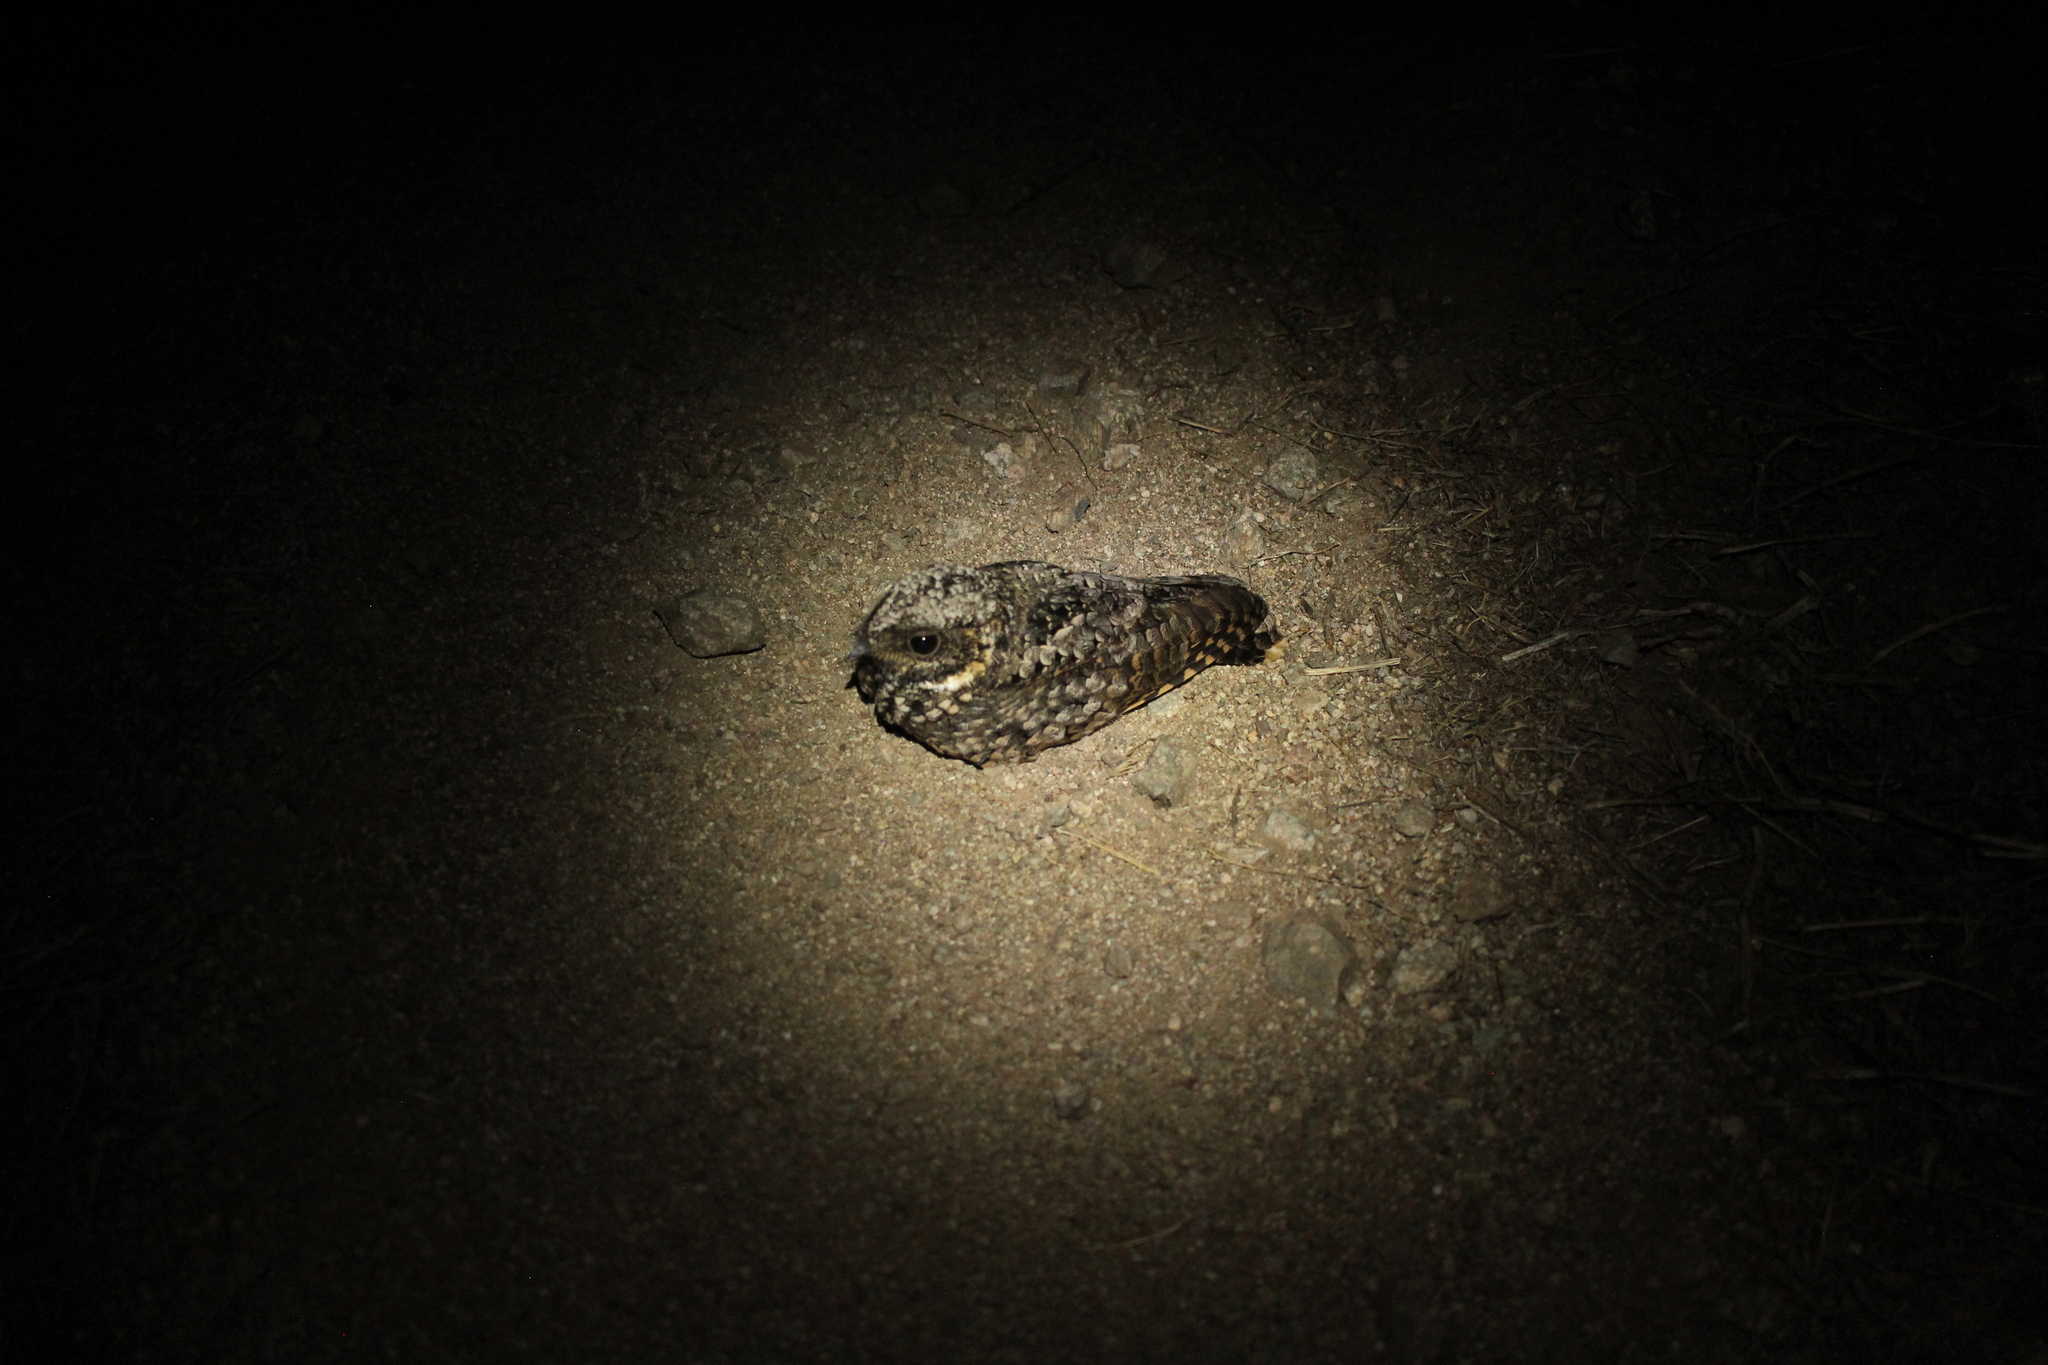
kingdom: Animalia
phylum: Chordata
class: Aves
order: Caprimulgiformes
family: Caprimulgidae
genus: Phalaenoptilus
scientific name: Phalaenoptilus nuttallii
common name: Common poorwill
